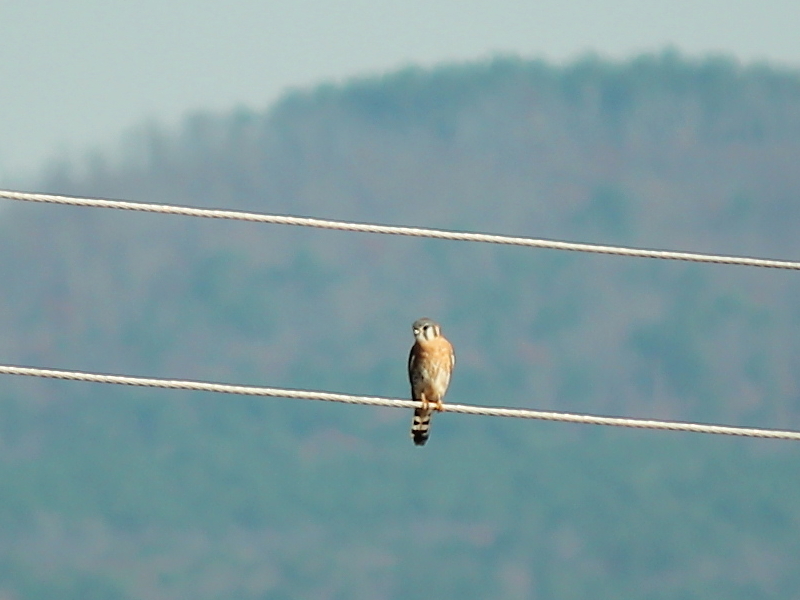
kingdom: Animalia
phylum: Chordata
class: Aves
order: Falconiformes
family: Falconidae
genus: Falco
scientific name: Falco sparverius
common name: American kestrel
